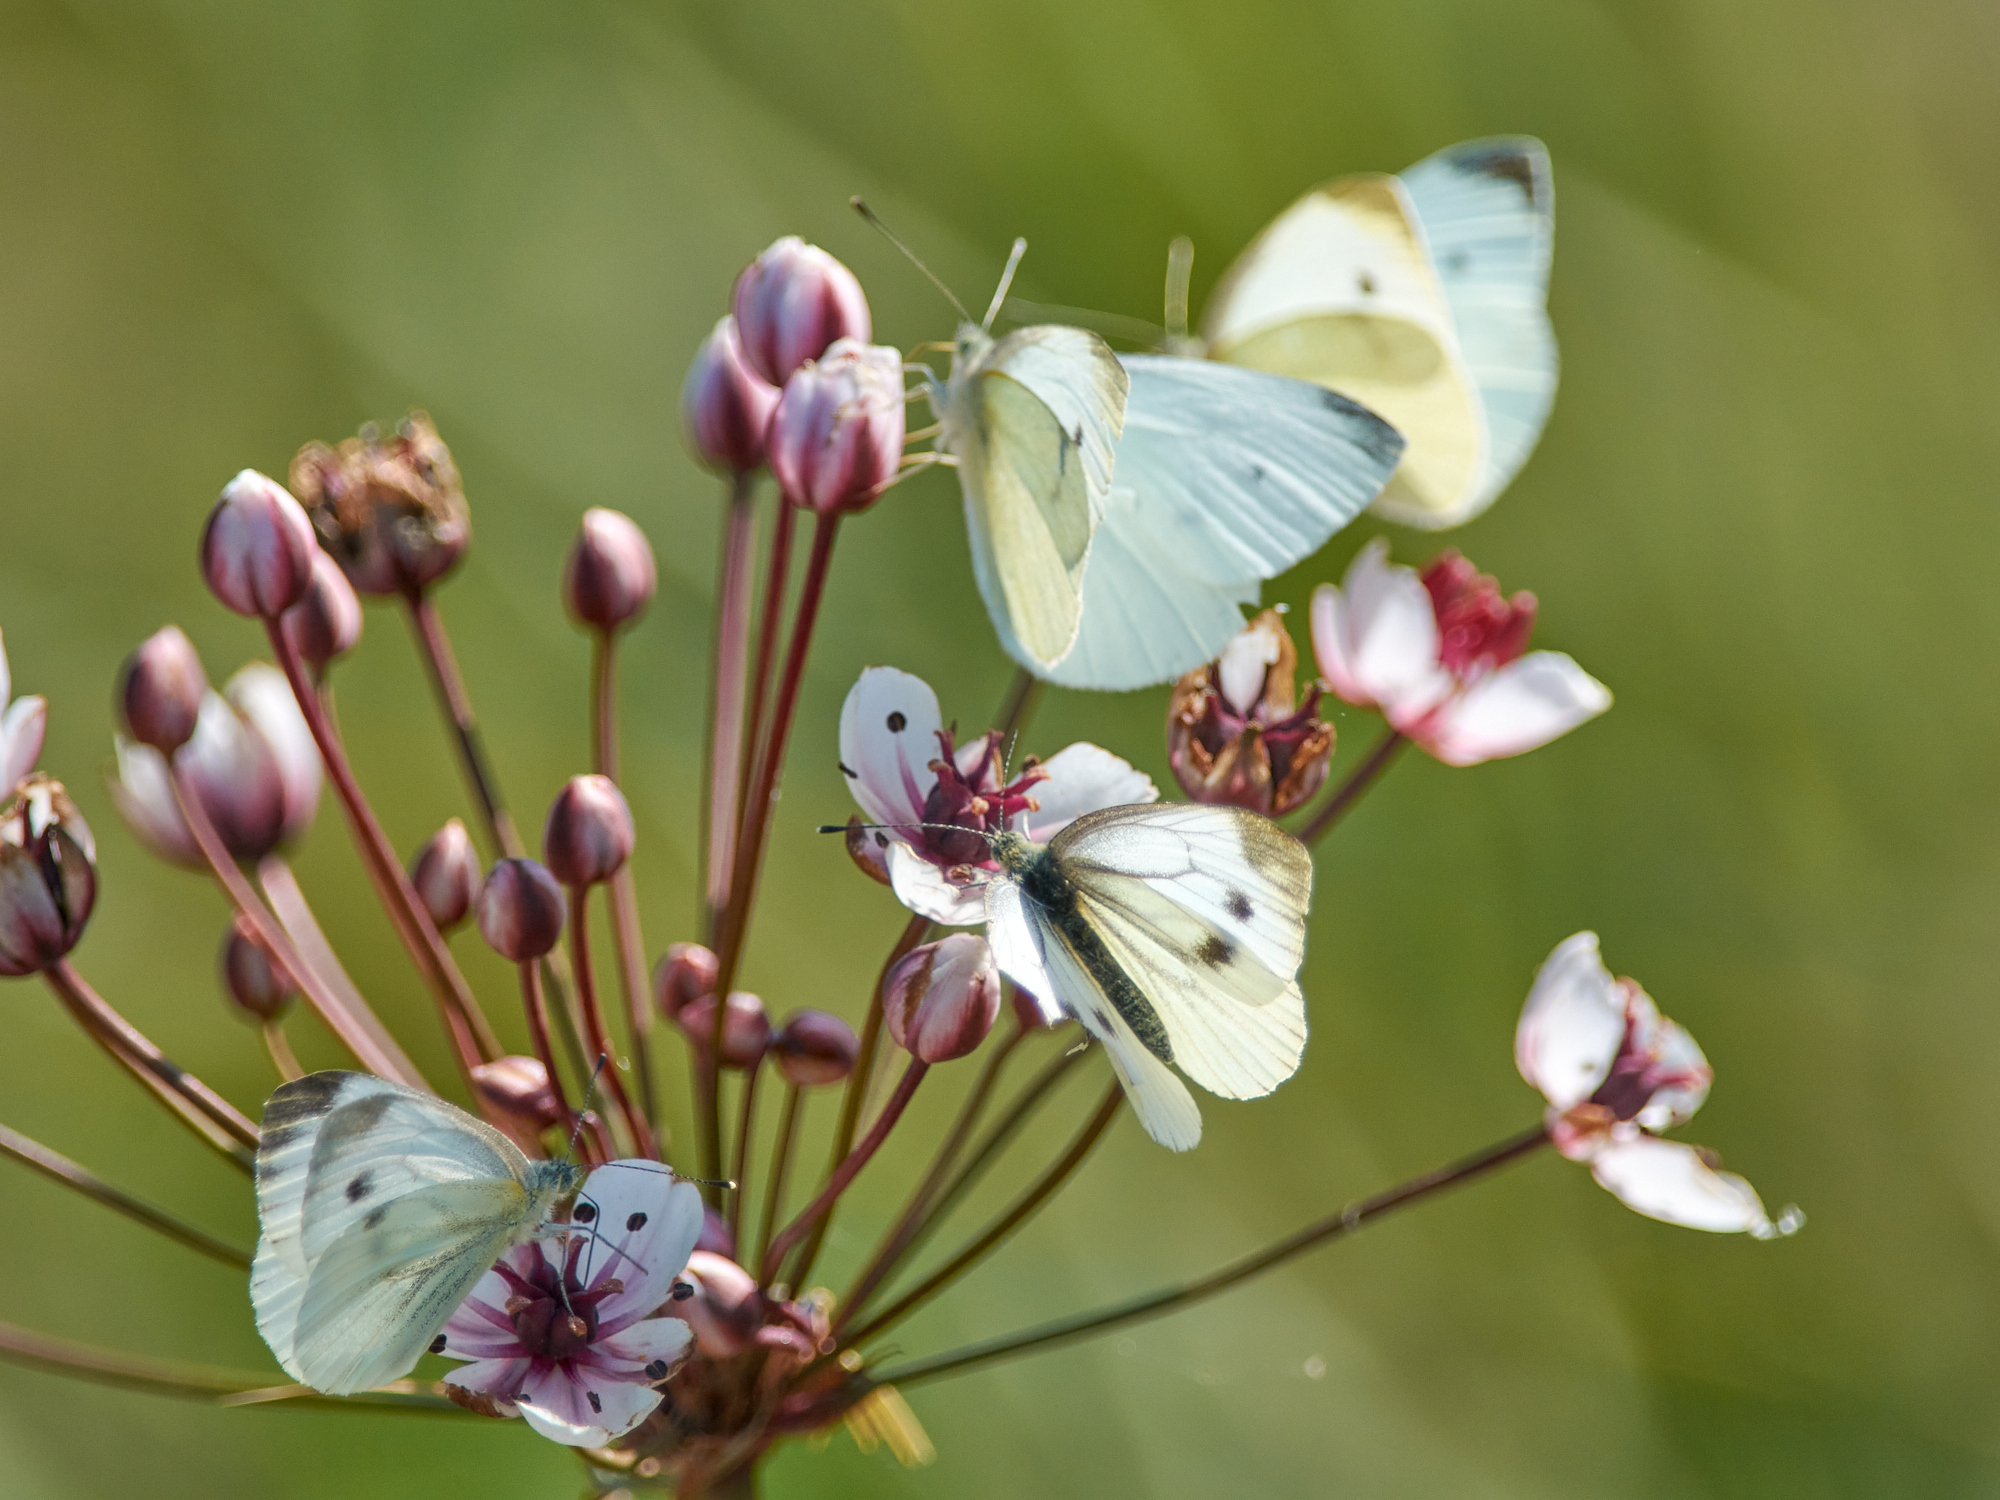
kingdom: Animalia
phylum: Arthropoda
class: Insecta
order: Lepidoptera
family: Pieridae
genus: Pieris
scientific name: Pieris napi
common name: Green-veined white
